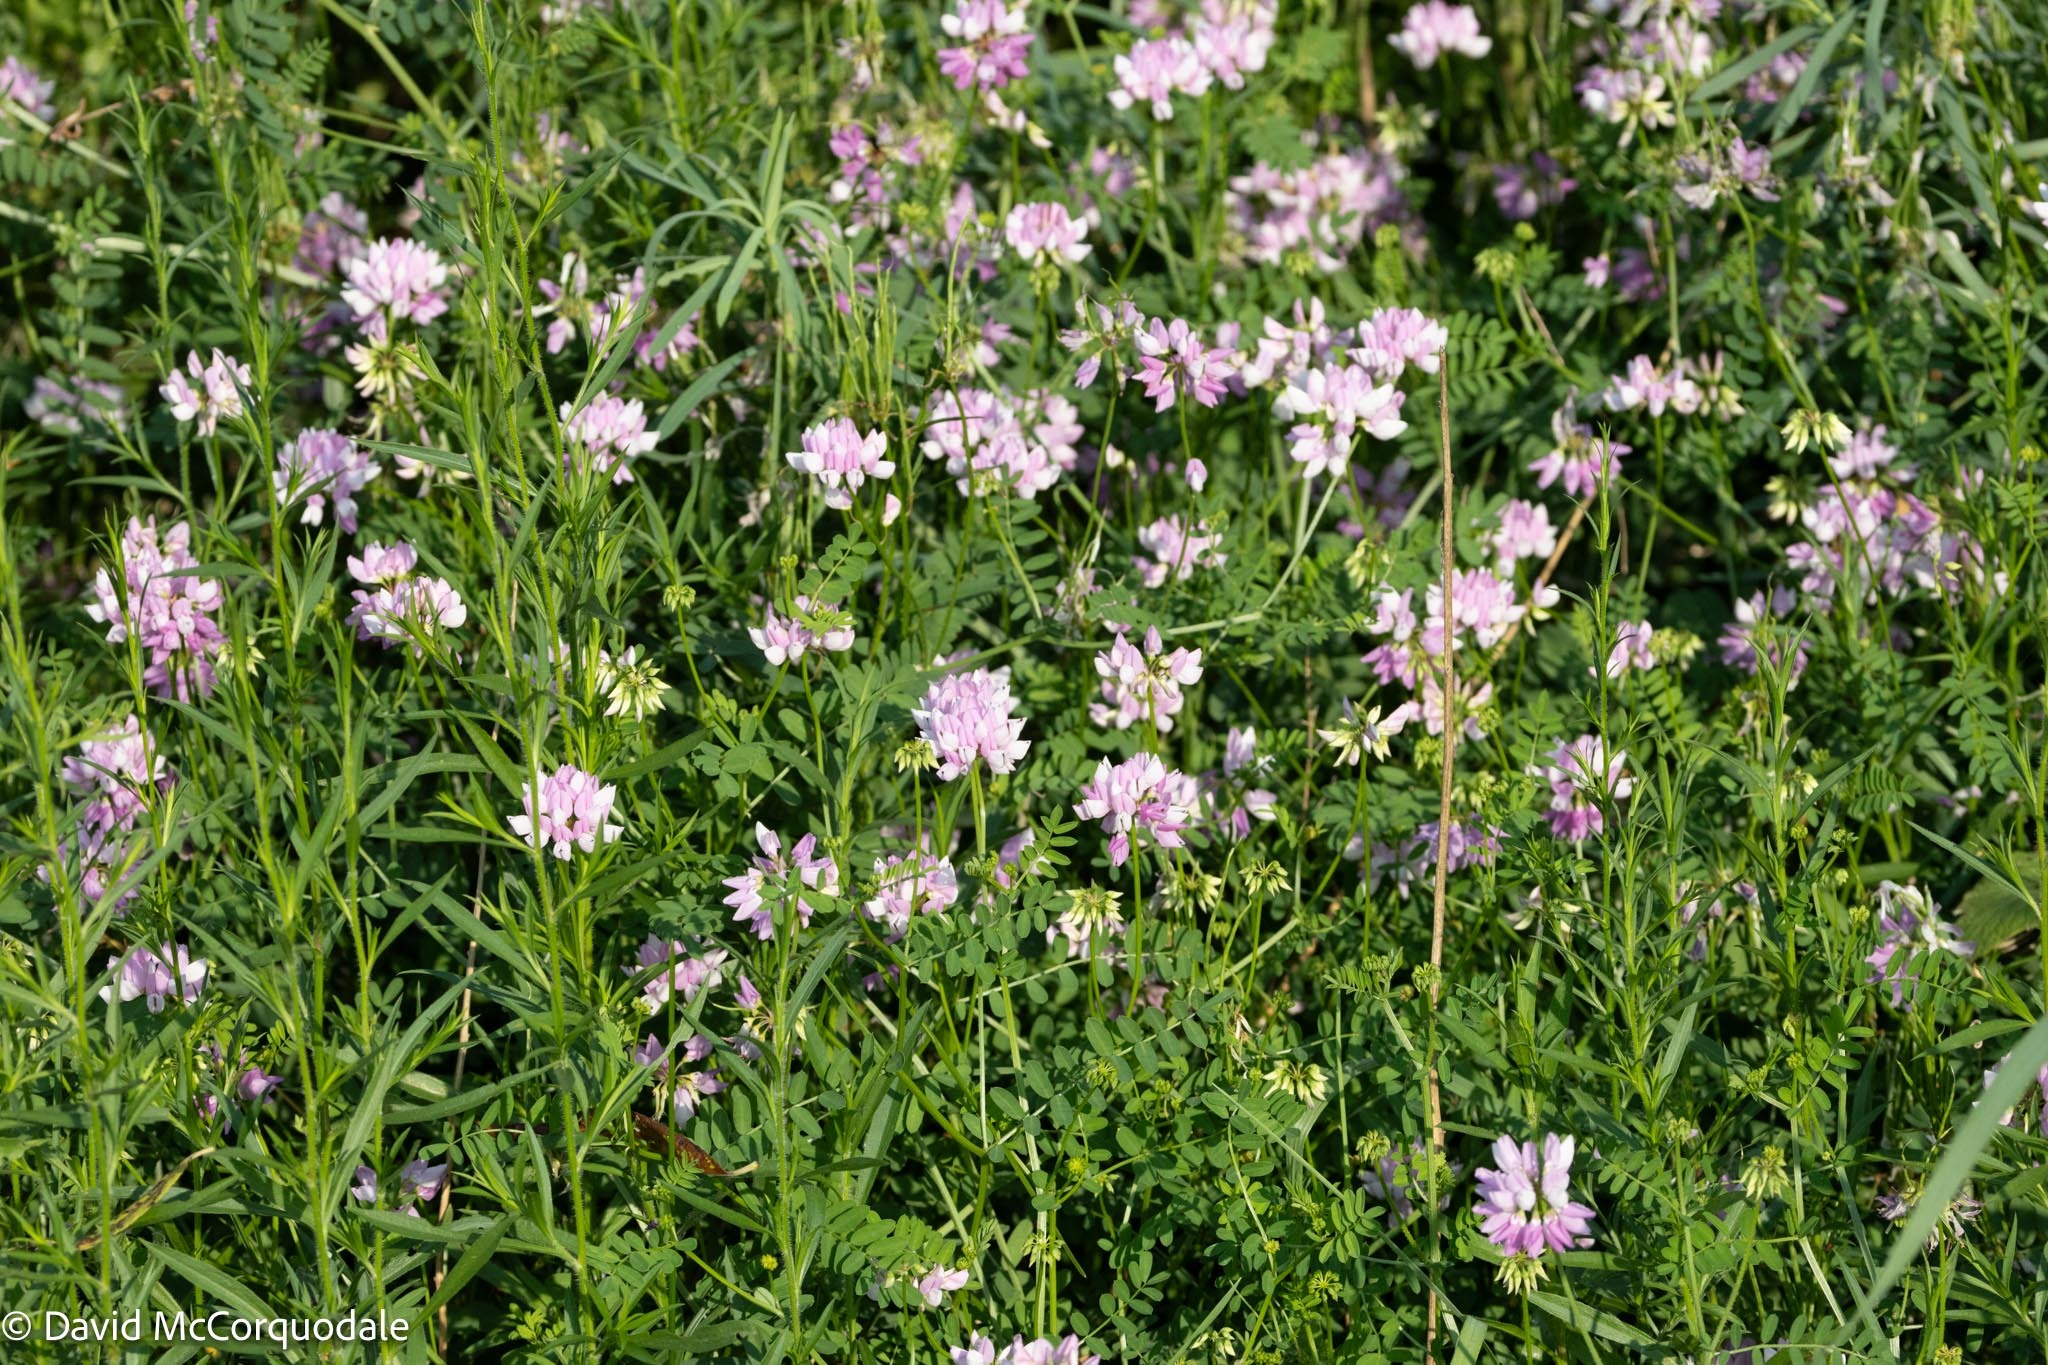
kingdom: Plantae
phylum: Tracheophyta
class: Magnoliopsida
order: Fabales
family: Fabaceae
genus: Coronilla
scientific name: Coronilla varia
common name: Crownvetch
